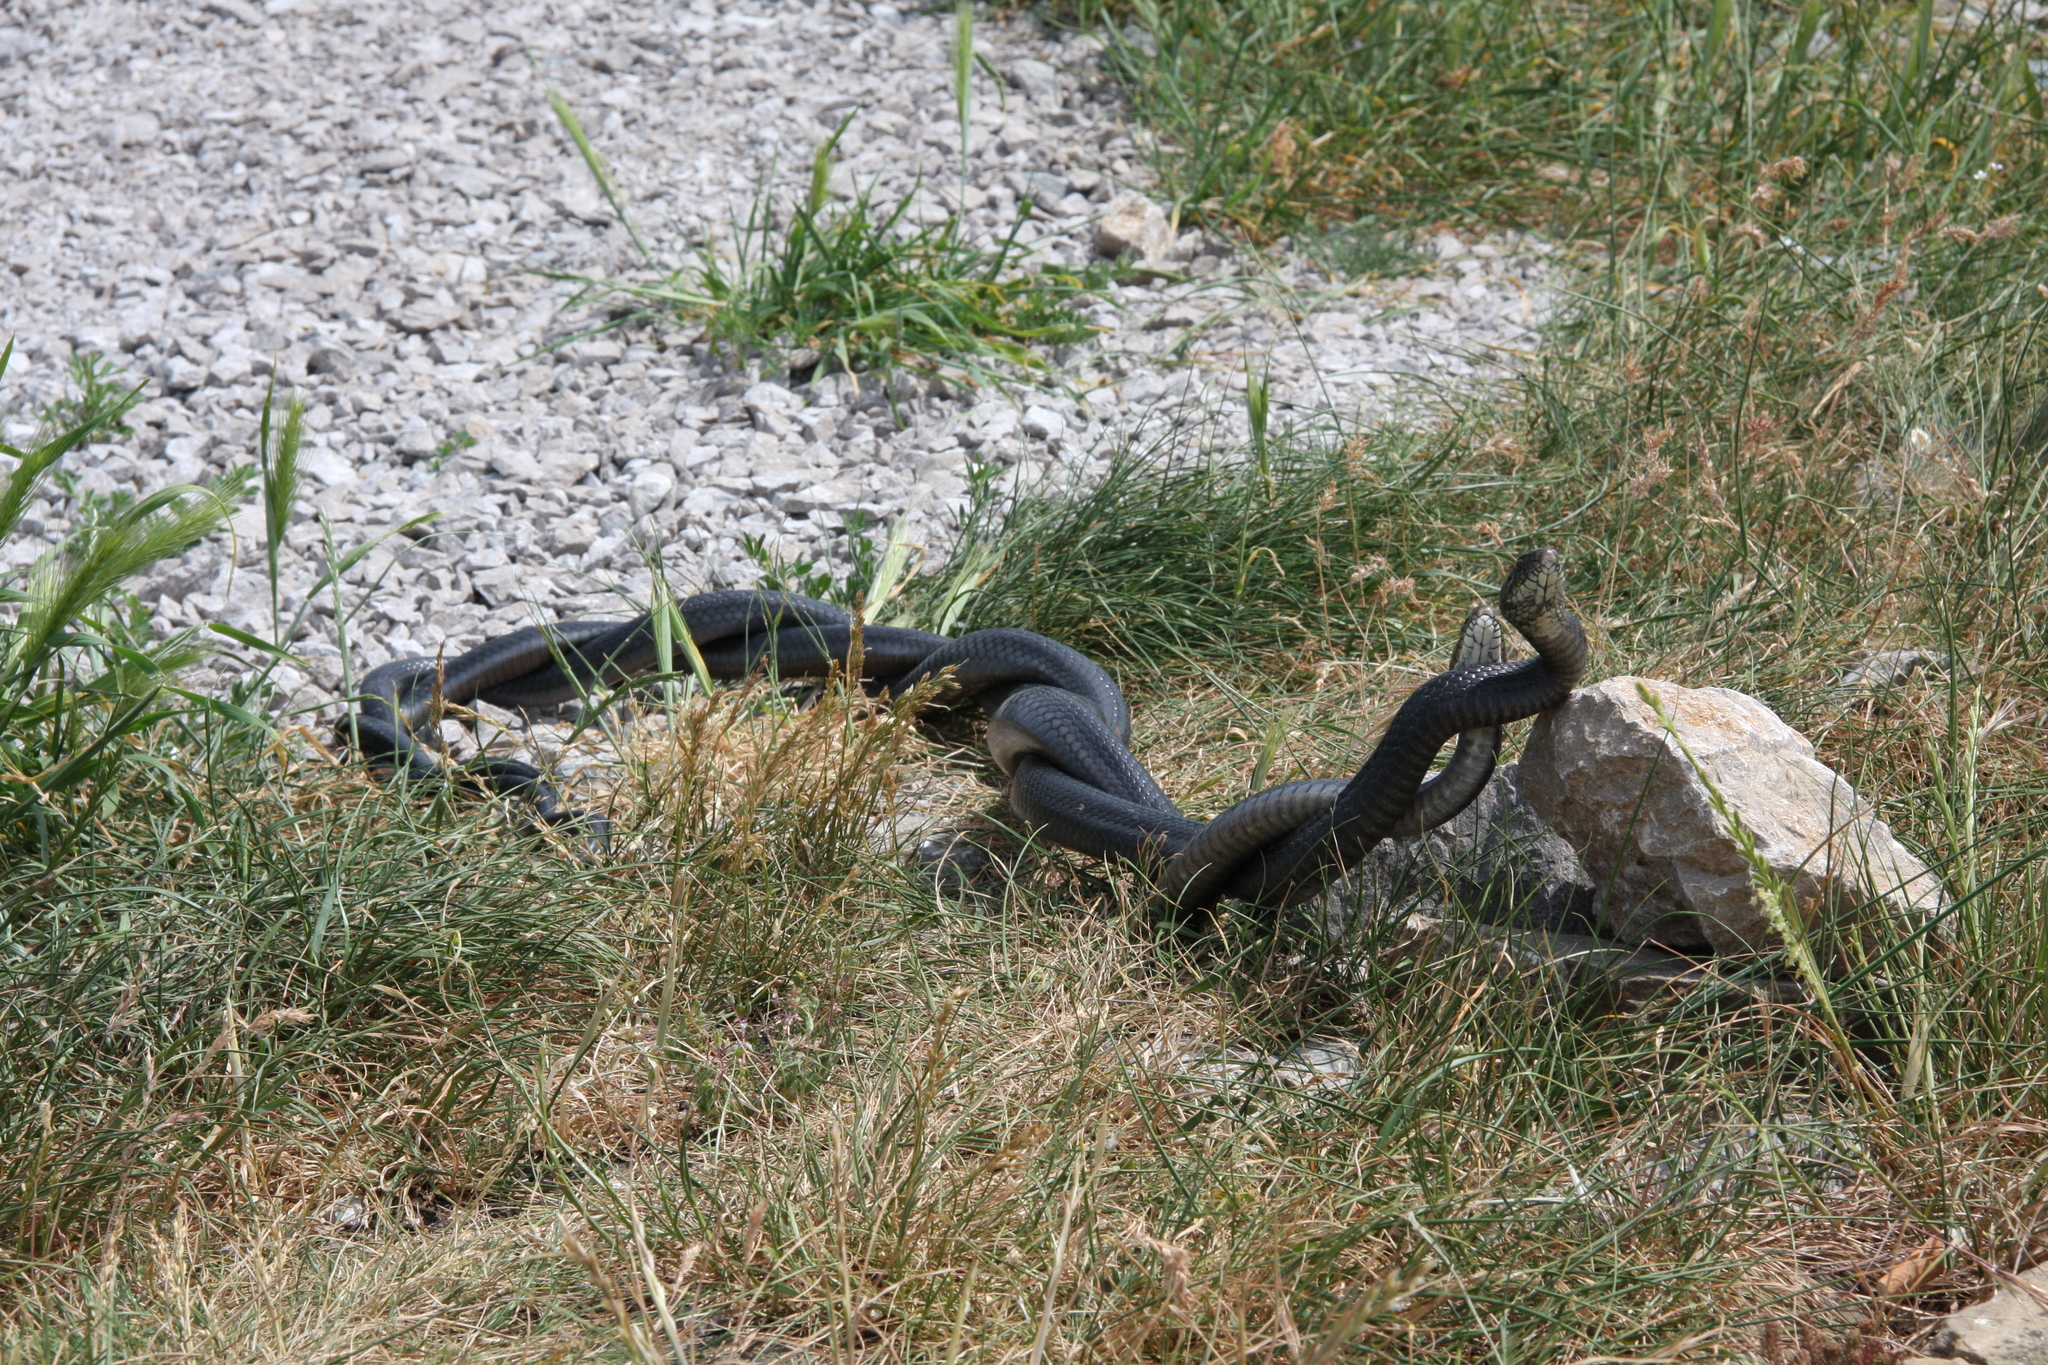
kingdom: Animalia
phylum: Chordata
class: Squamata
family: Colubridae
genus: Hierophis
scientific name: Hierophis viridiflavus
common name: Green whip snake
